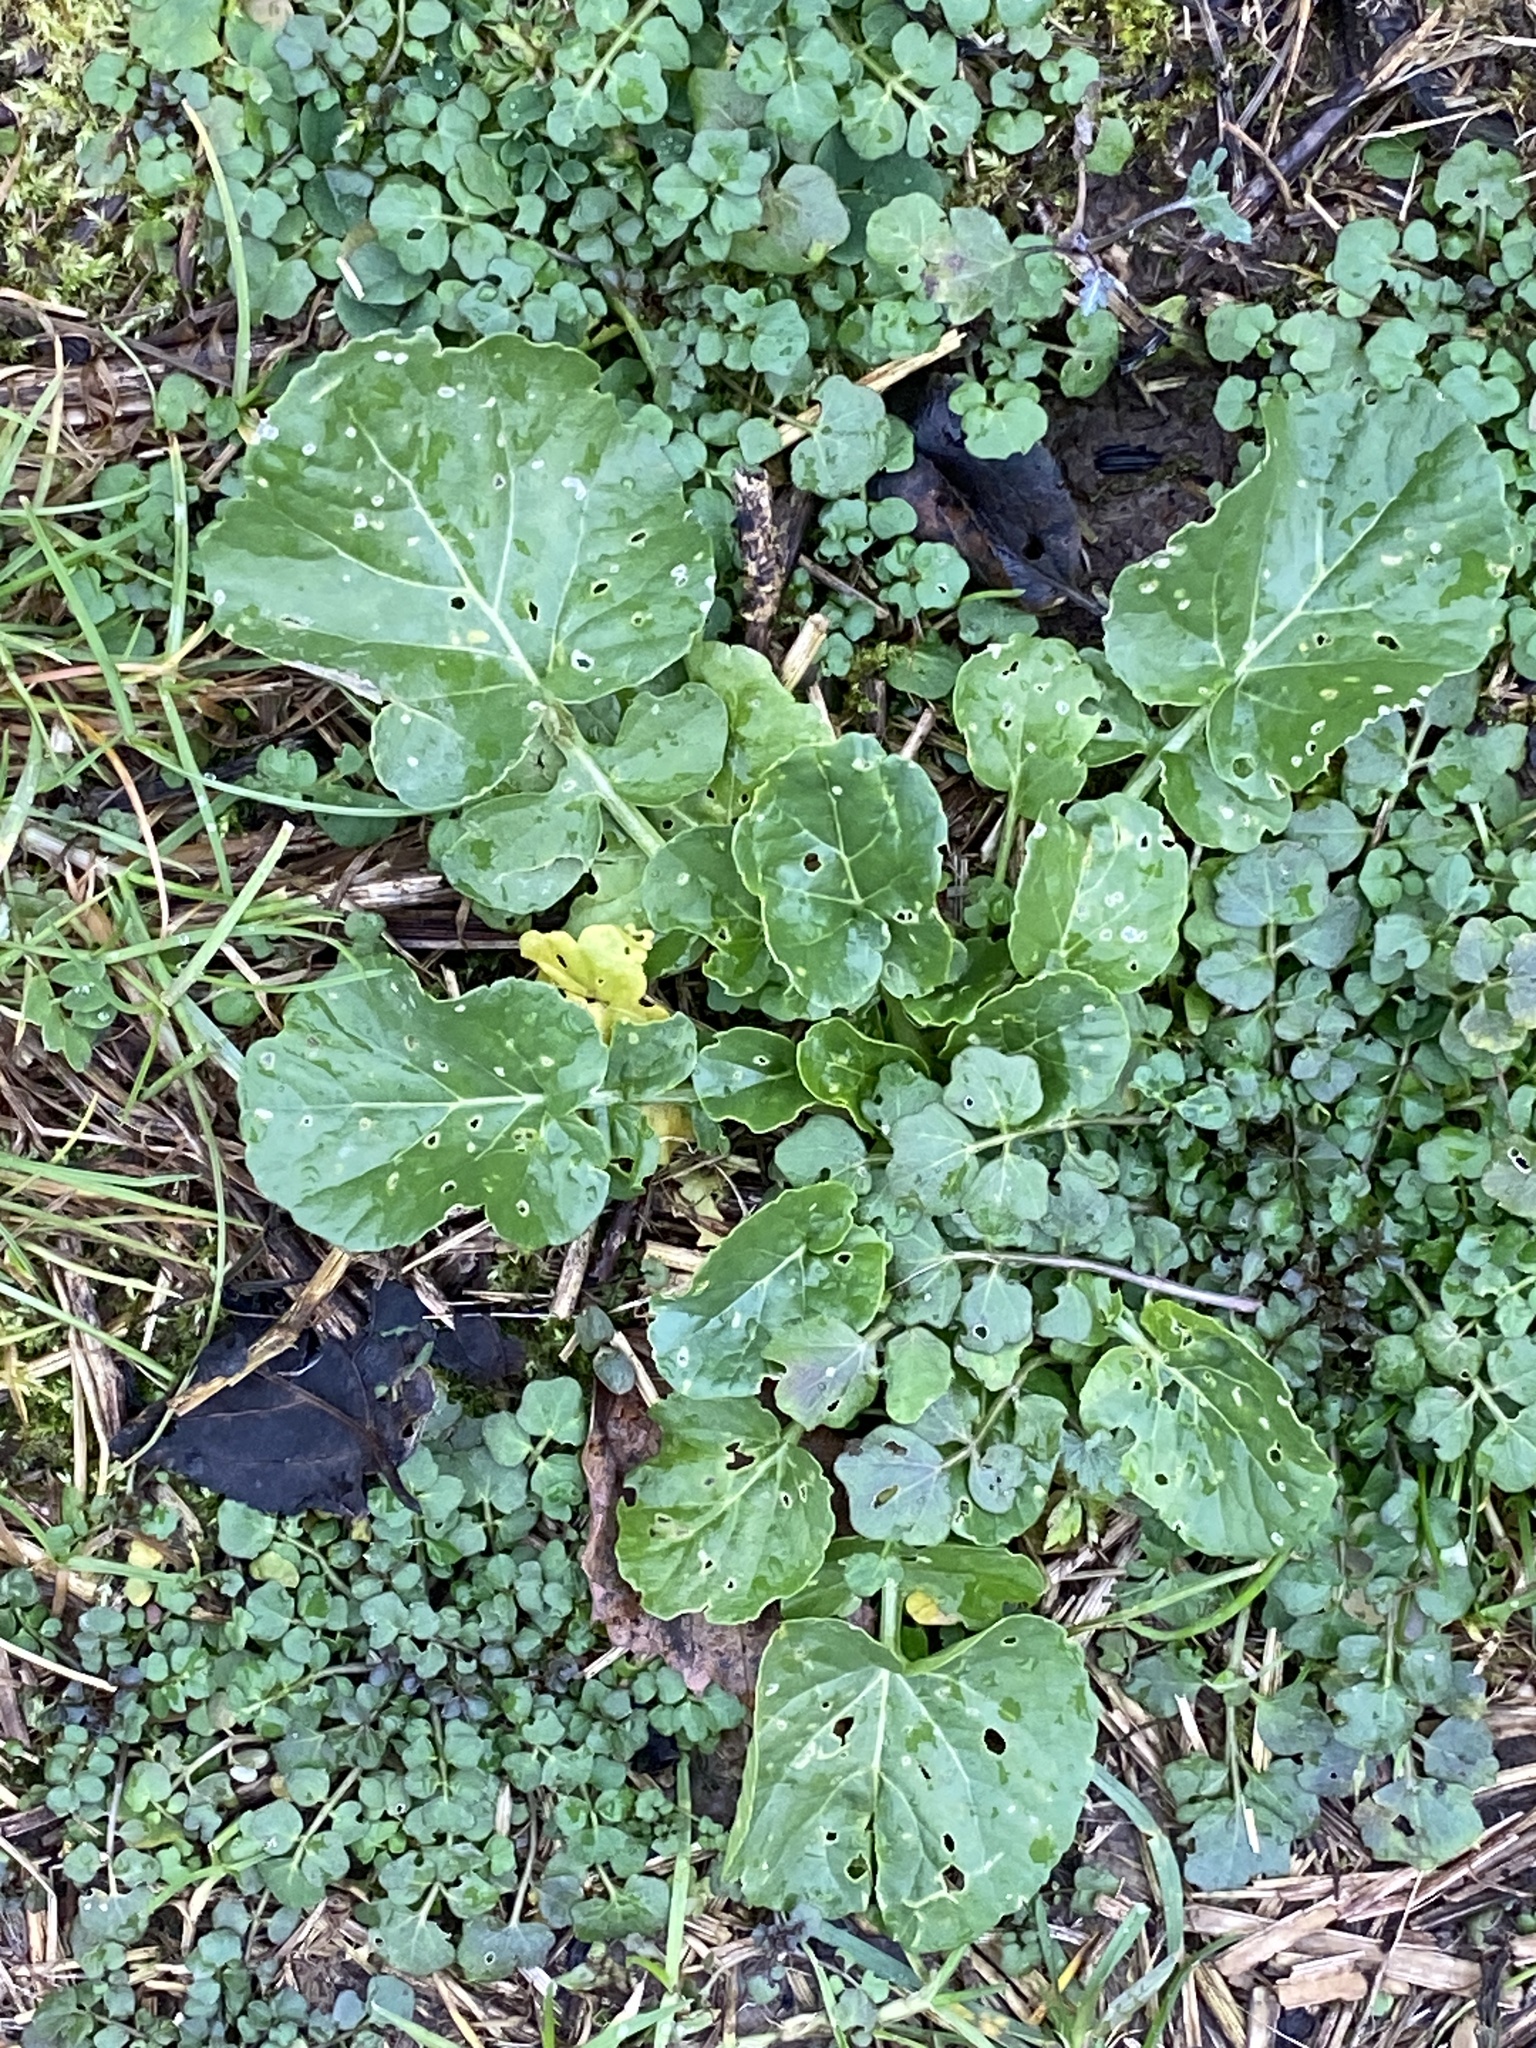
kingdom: Plantae
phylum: Tracheophyta
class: Magnoliopsida
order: Brassicales
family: Brassicaceae
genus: Barbarea
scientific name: Barbarea vulgaris
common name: Cressy-greens
